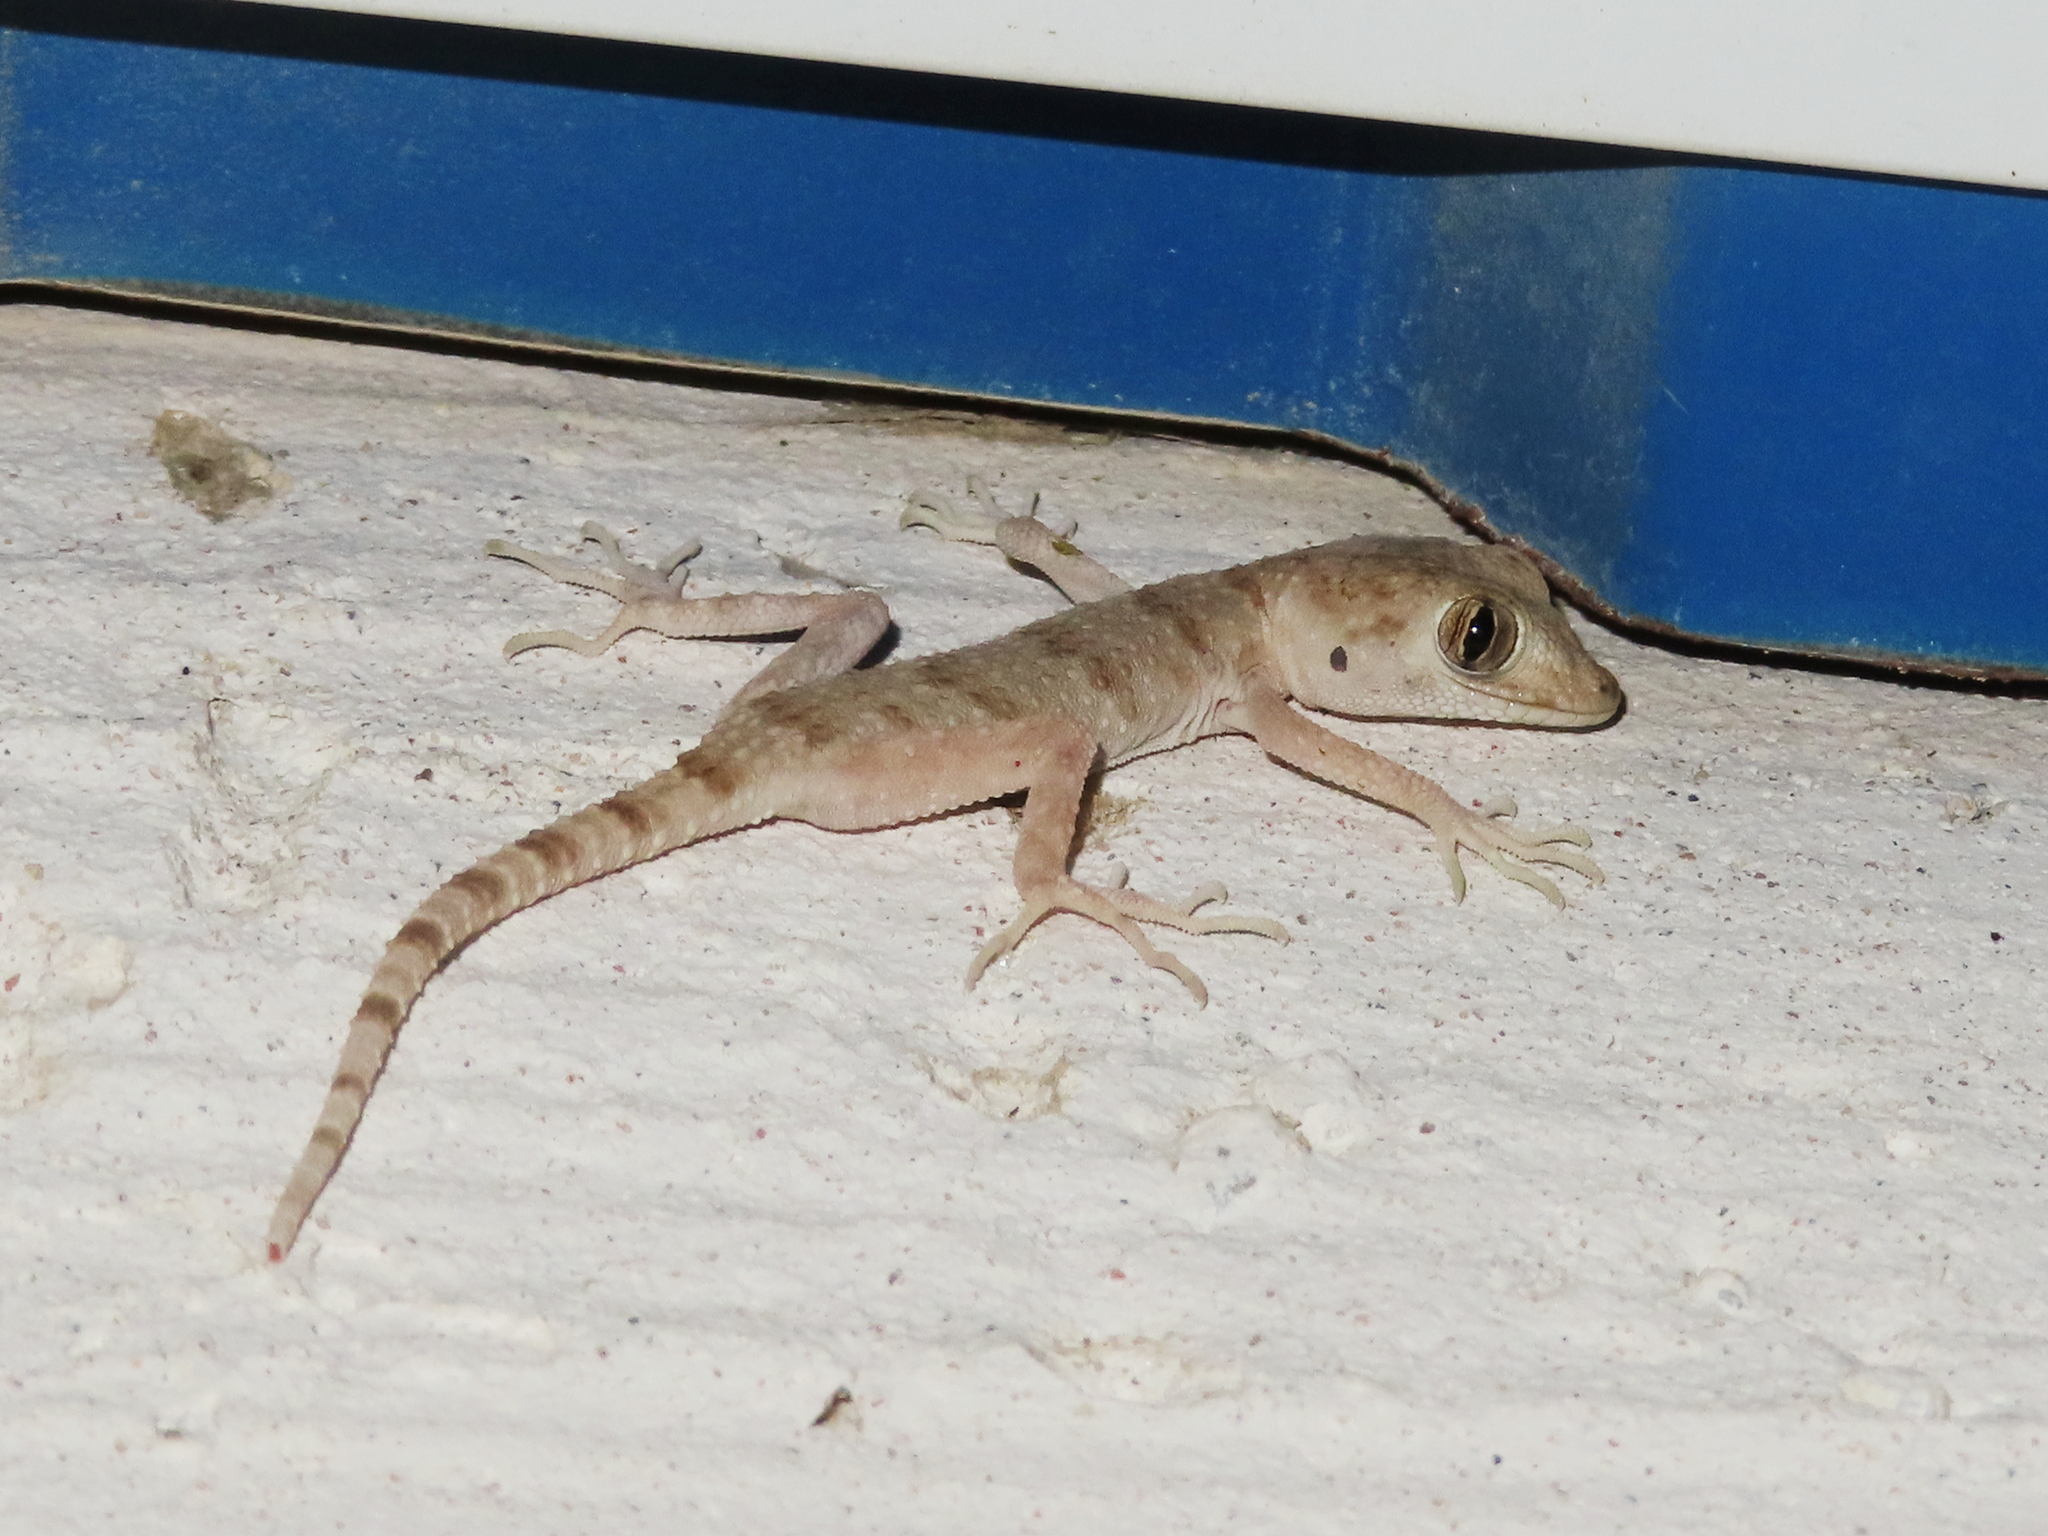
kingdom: Animalia
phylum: Chordata
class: Squamata
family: Gekkonidae
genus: Tenuidactylus
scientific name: Tenuidactylus caspius
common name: Caspian bent-toed gecko
